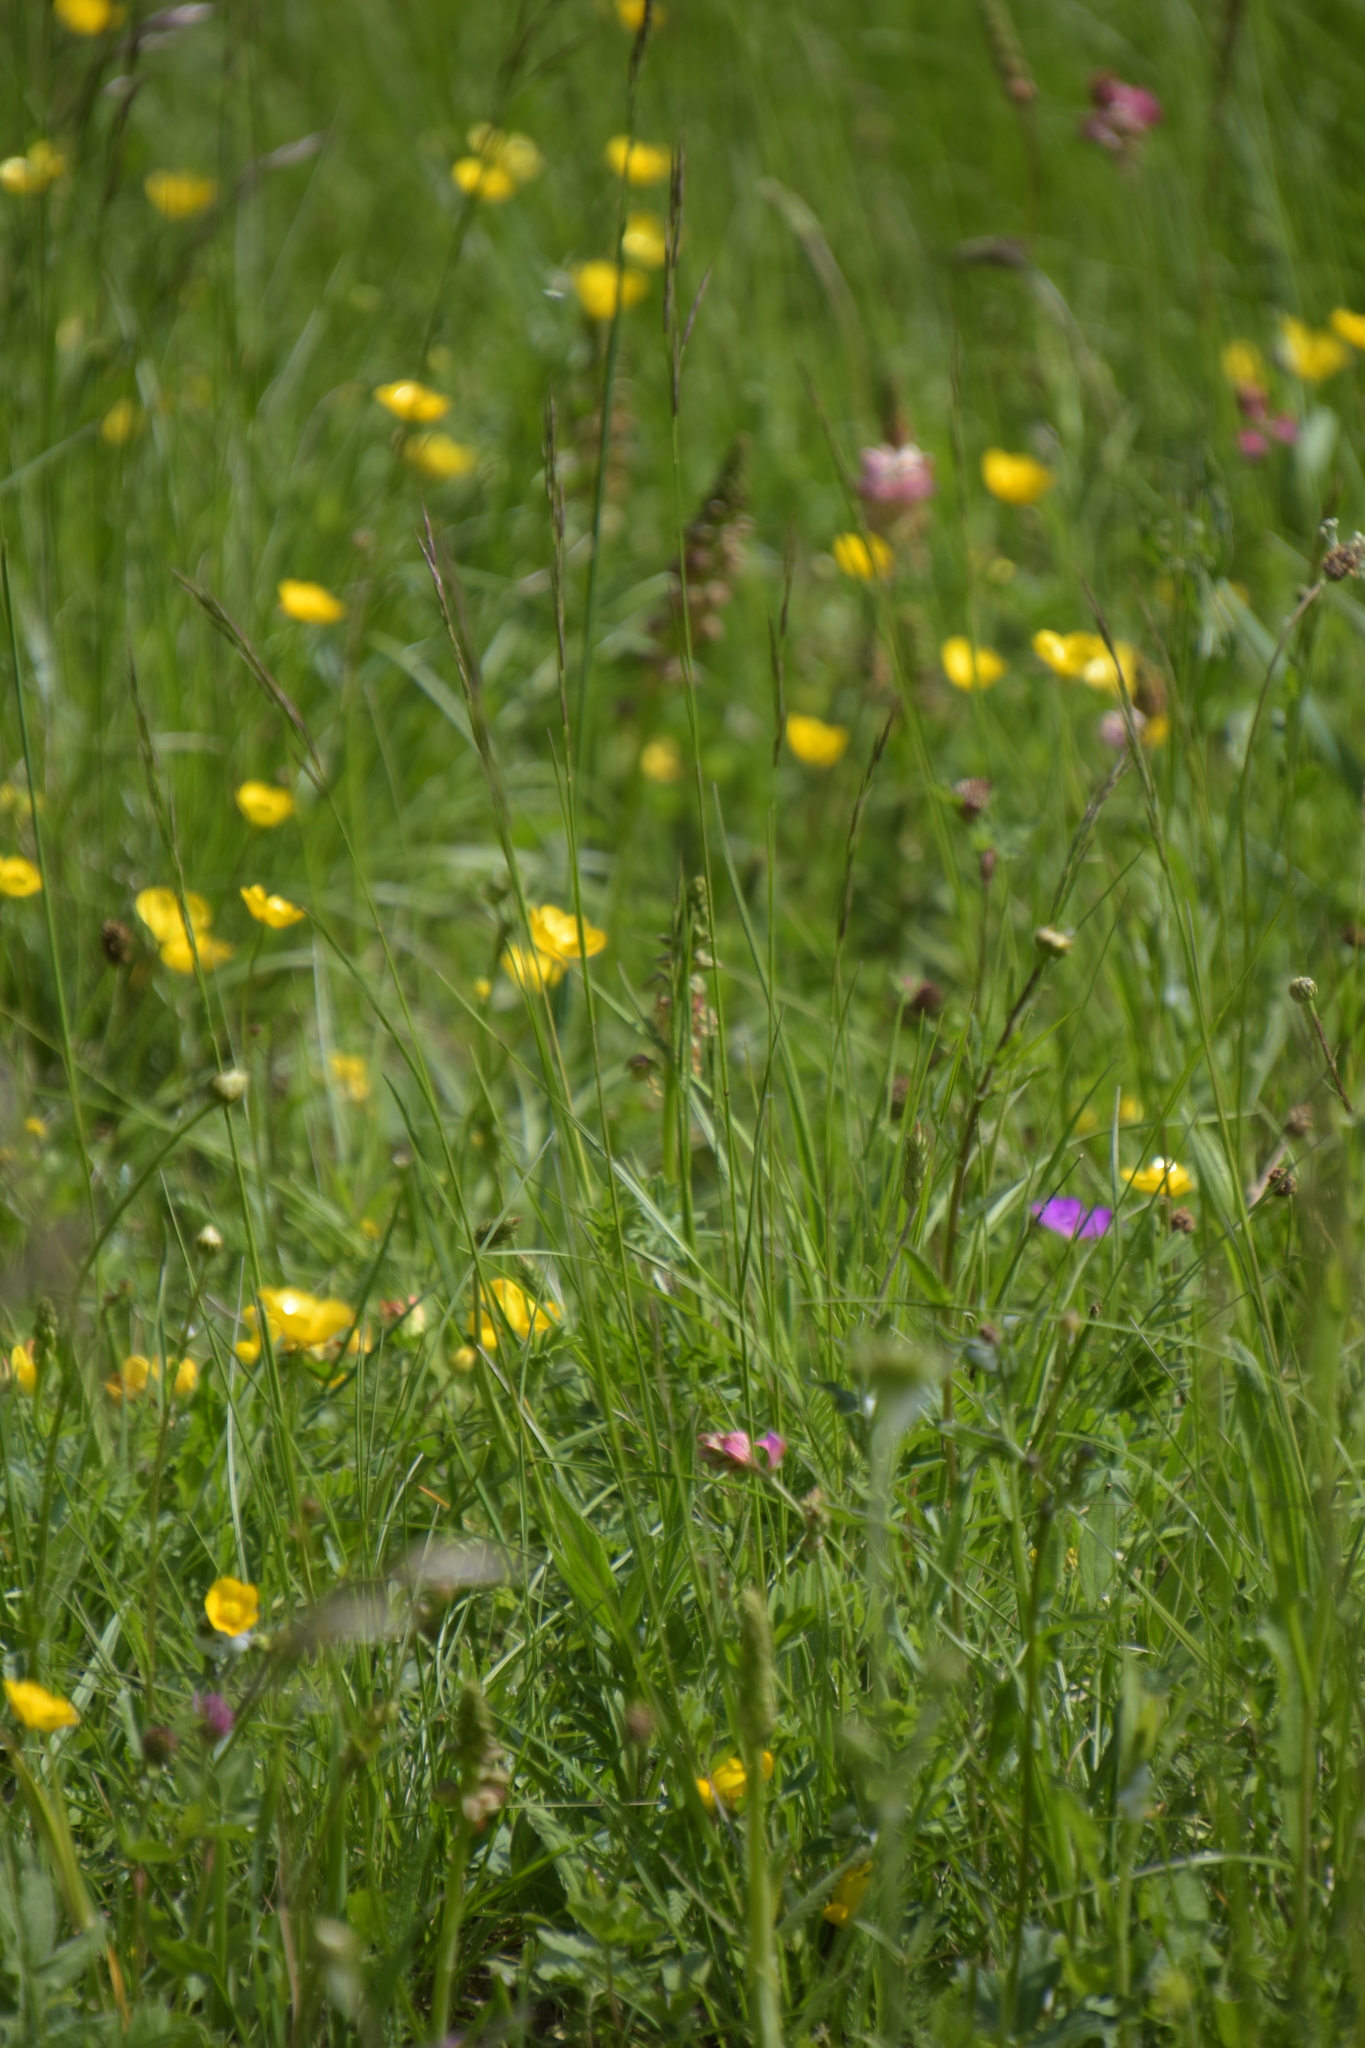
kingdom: Plantae
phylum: Tracheophyta
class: Liliopsida
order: Asparagales
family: Orchidaceae
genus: Orchis
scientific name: Orchis anthropophora
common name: Man orchid
